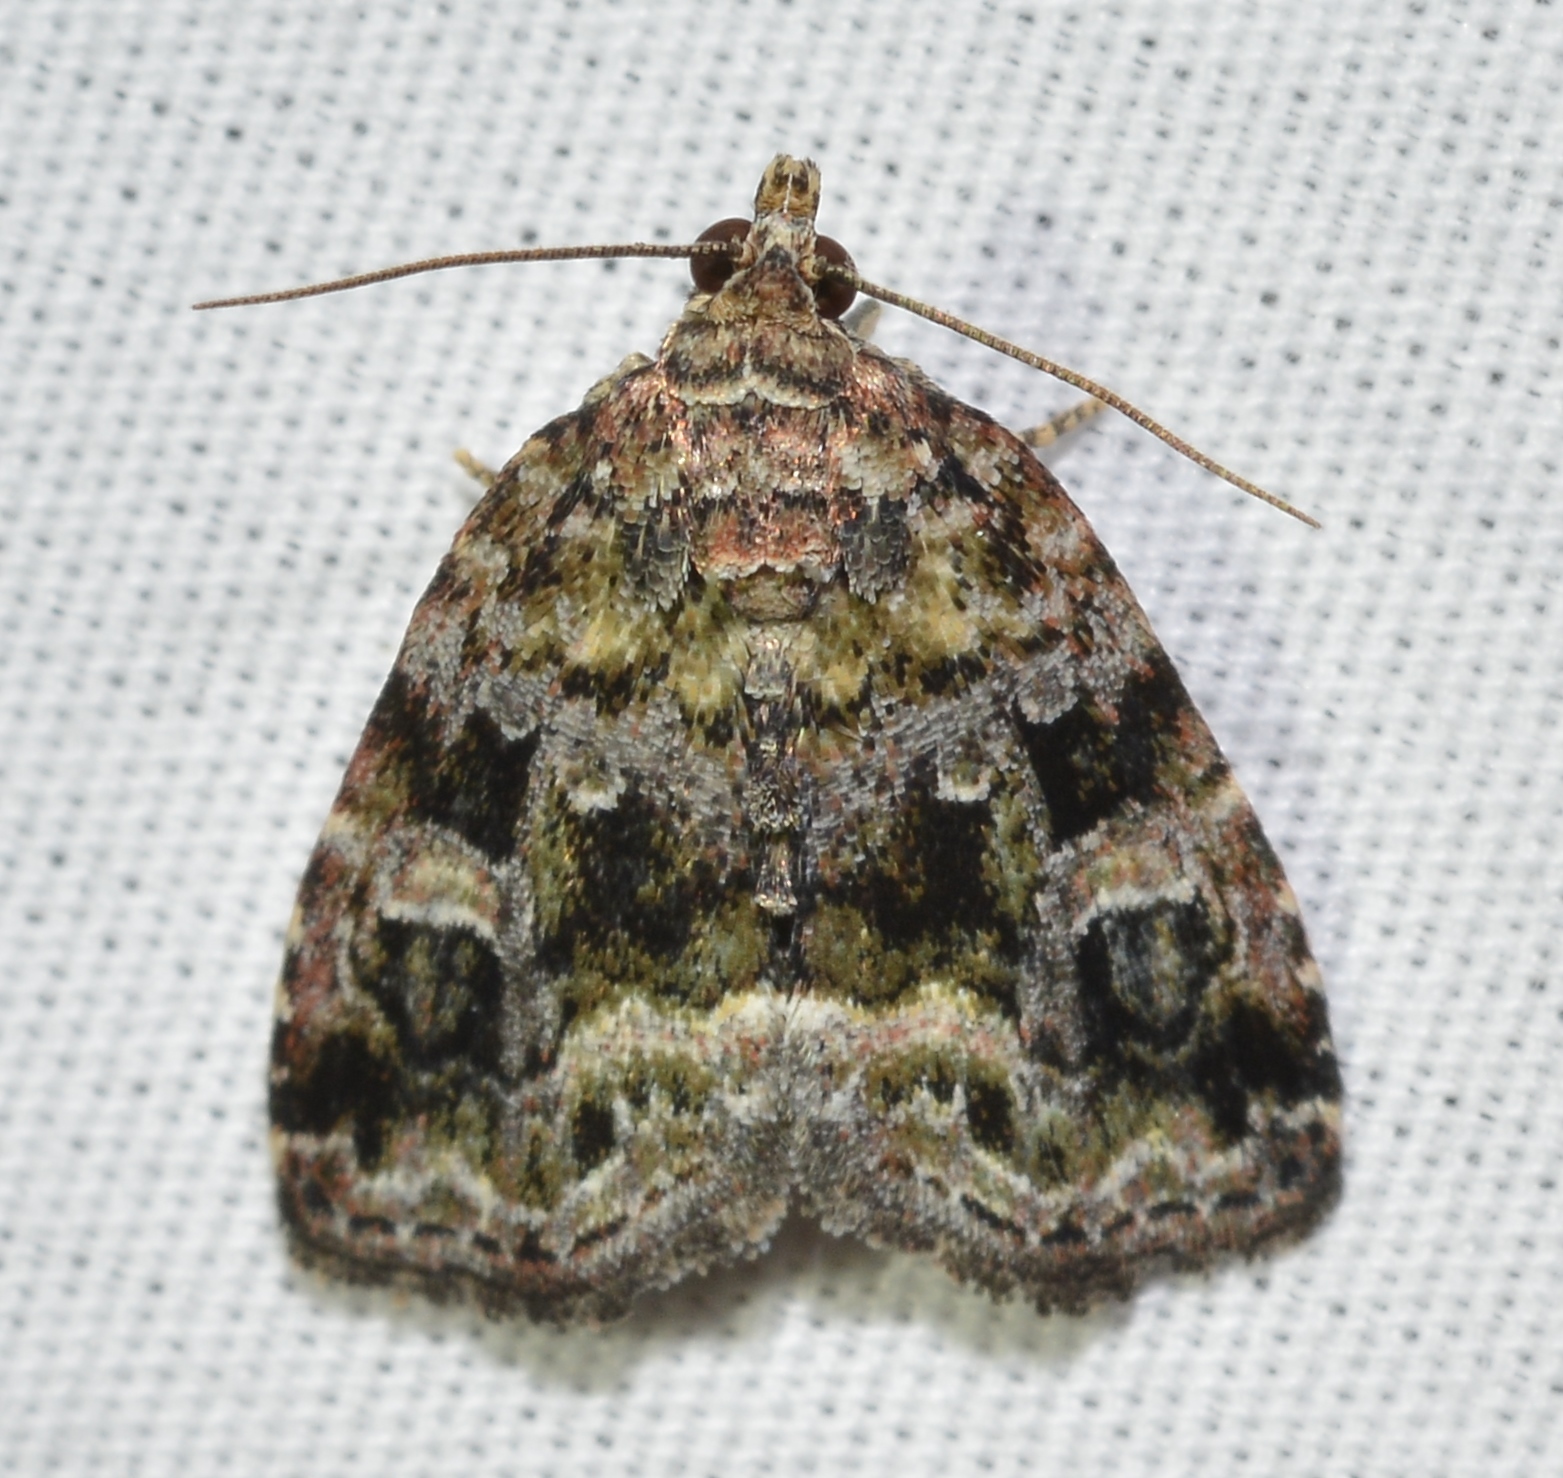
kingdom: Animalia
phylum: Arthropoda
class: Insecta
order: Lepidoptera
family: Noctuidae
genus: Protodeltote
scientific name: Protodeltote muscosula
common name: Large mossy glyph
